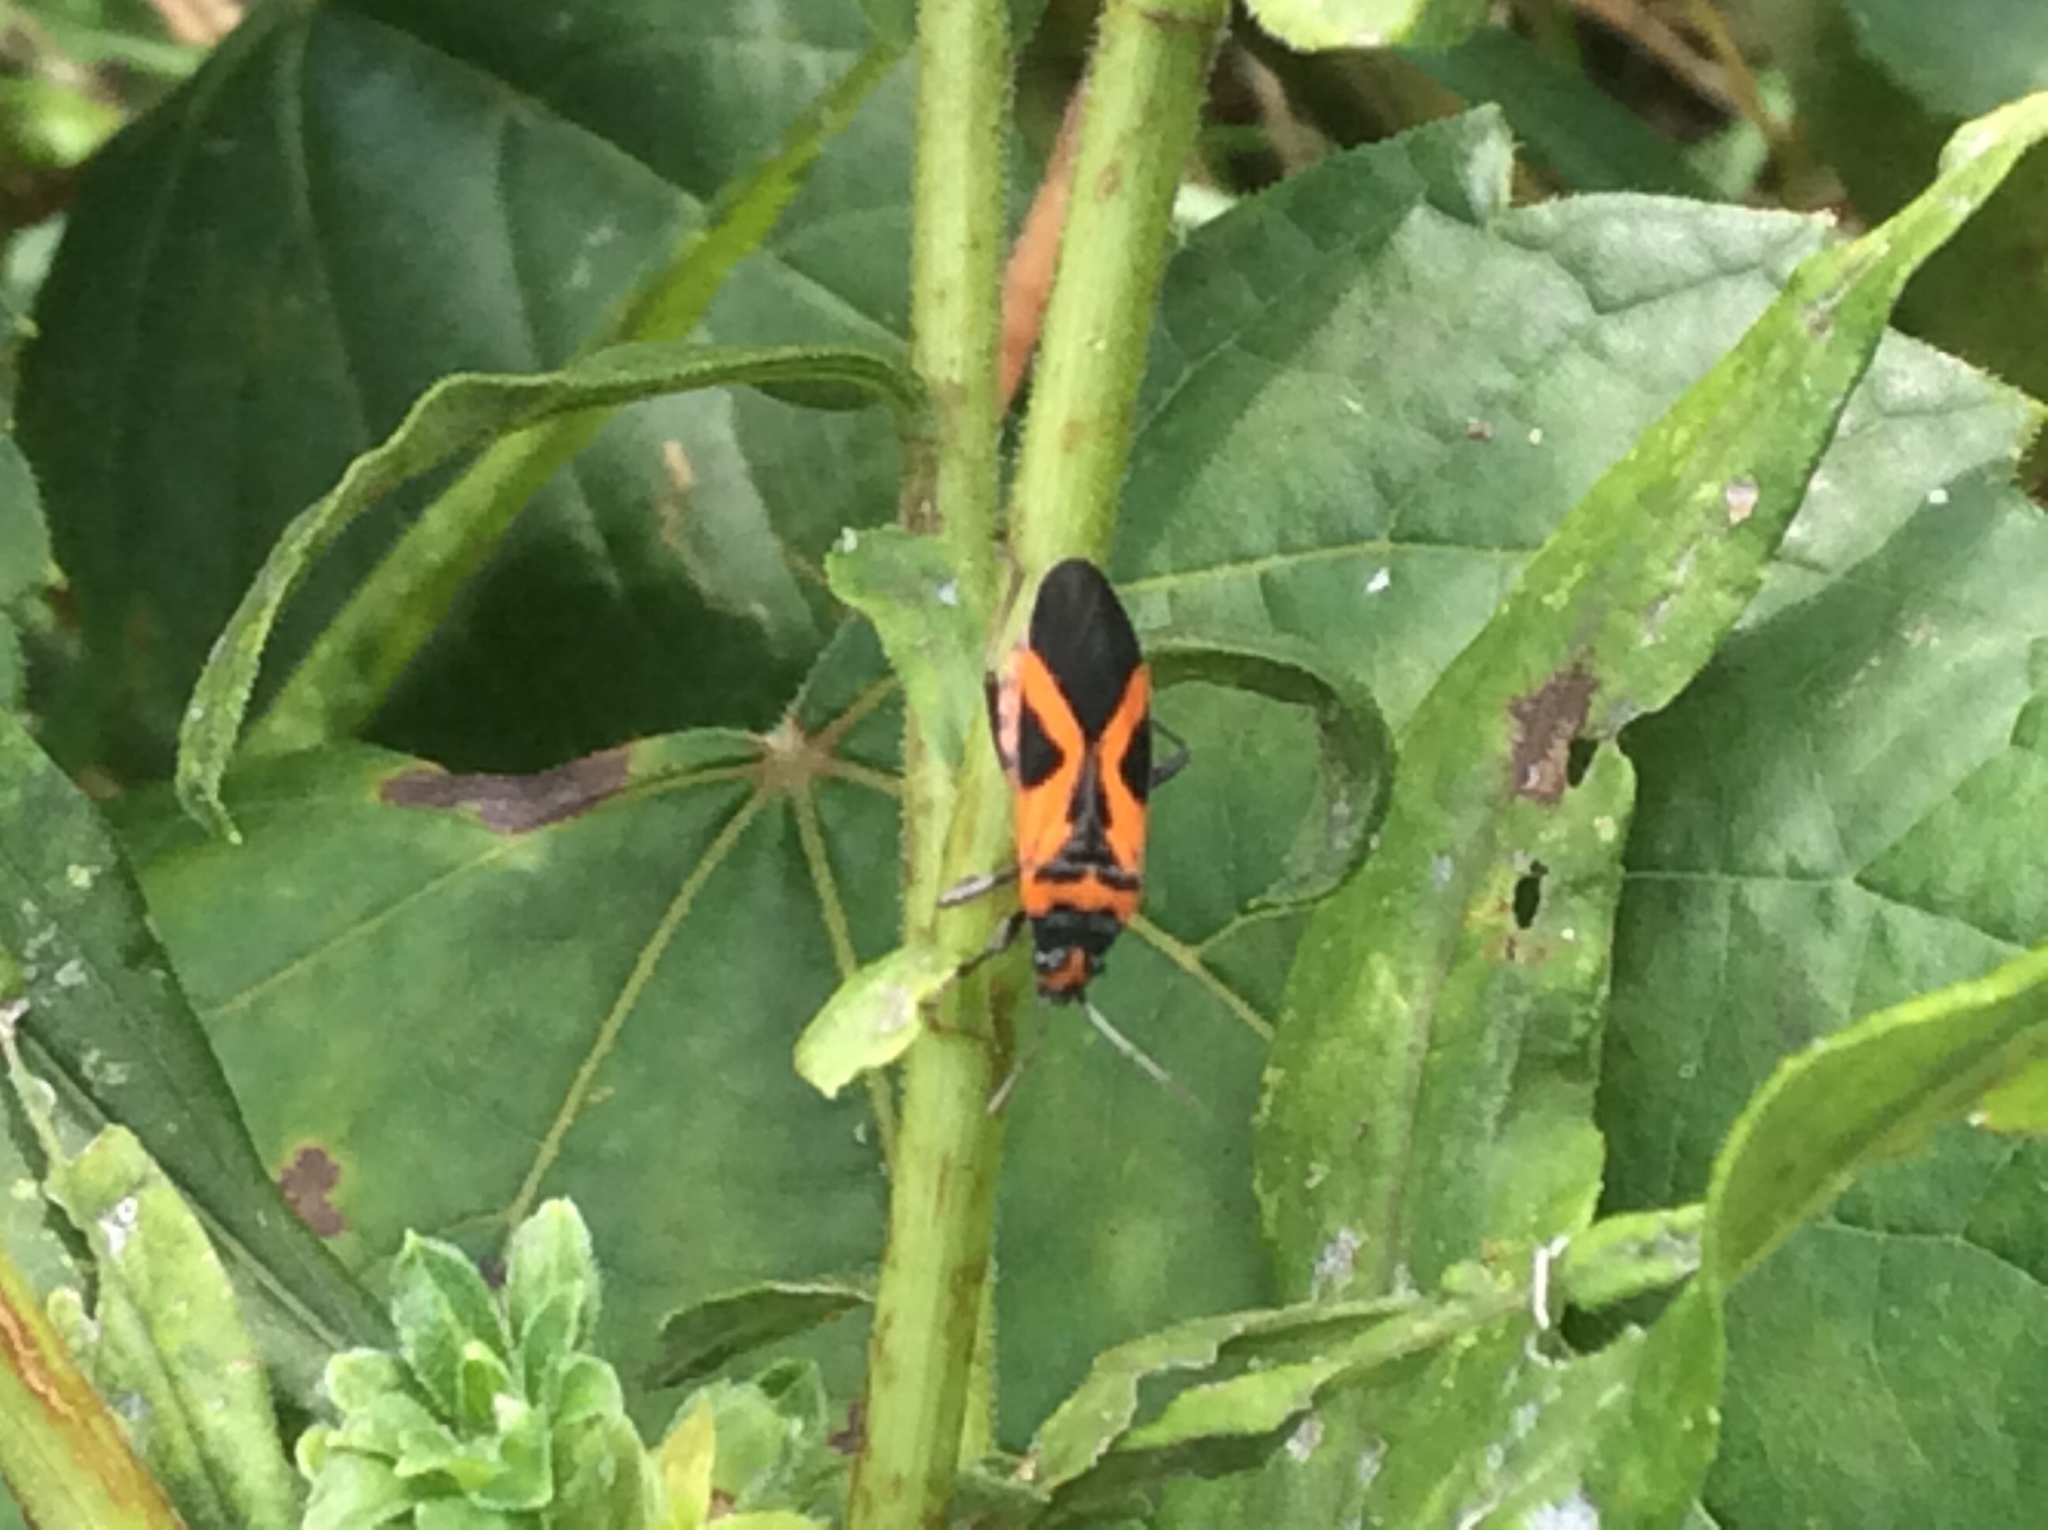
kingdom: Animalia
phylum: Arthropoda
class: Insecta
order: Hemiptera
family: Lygaeidae
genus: Lygaeus
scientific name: Lygaeus turcicus
